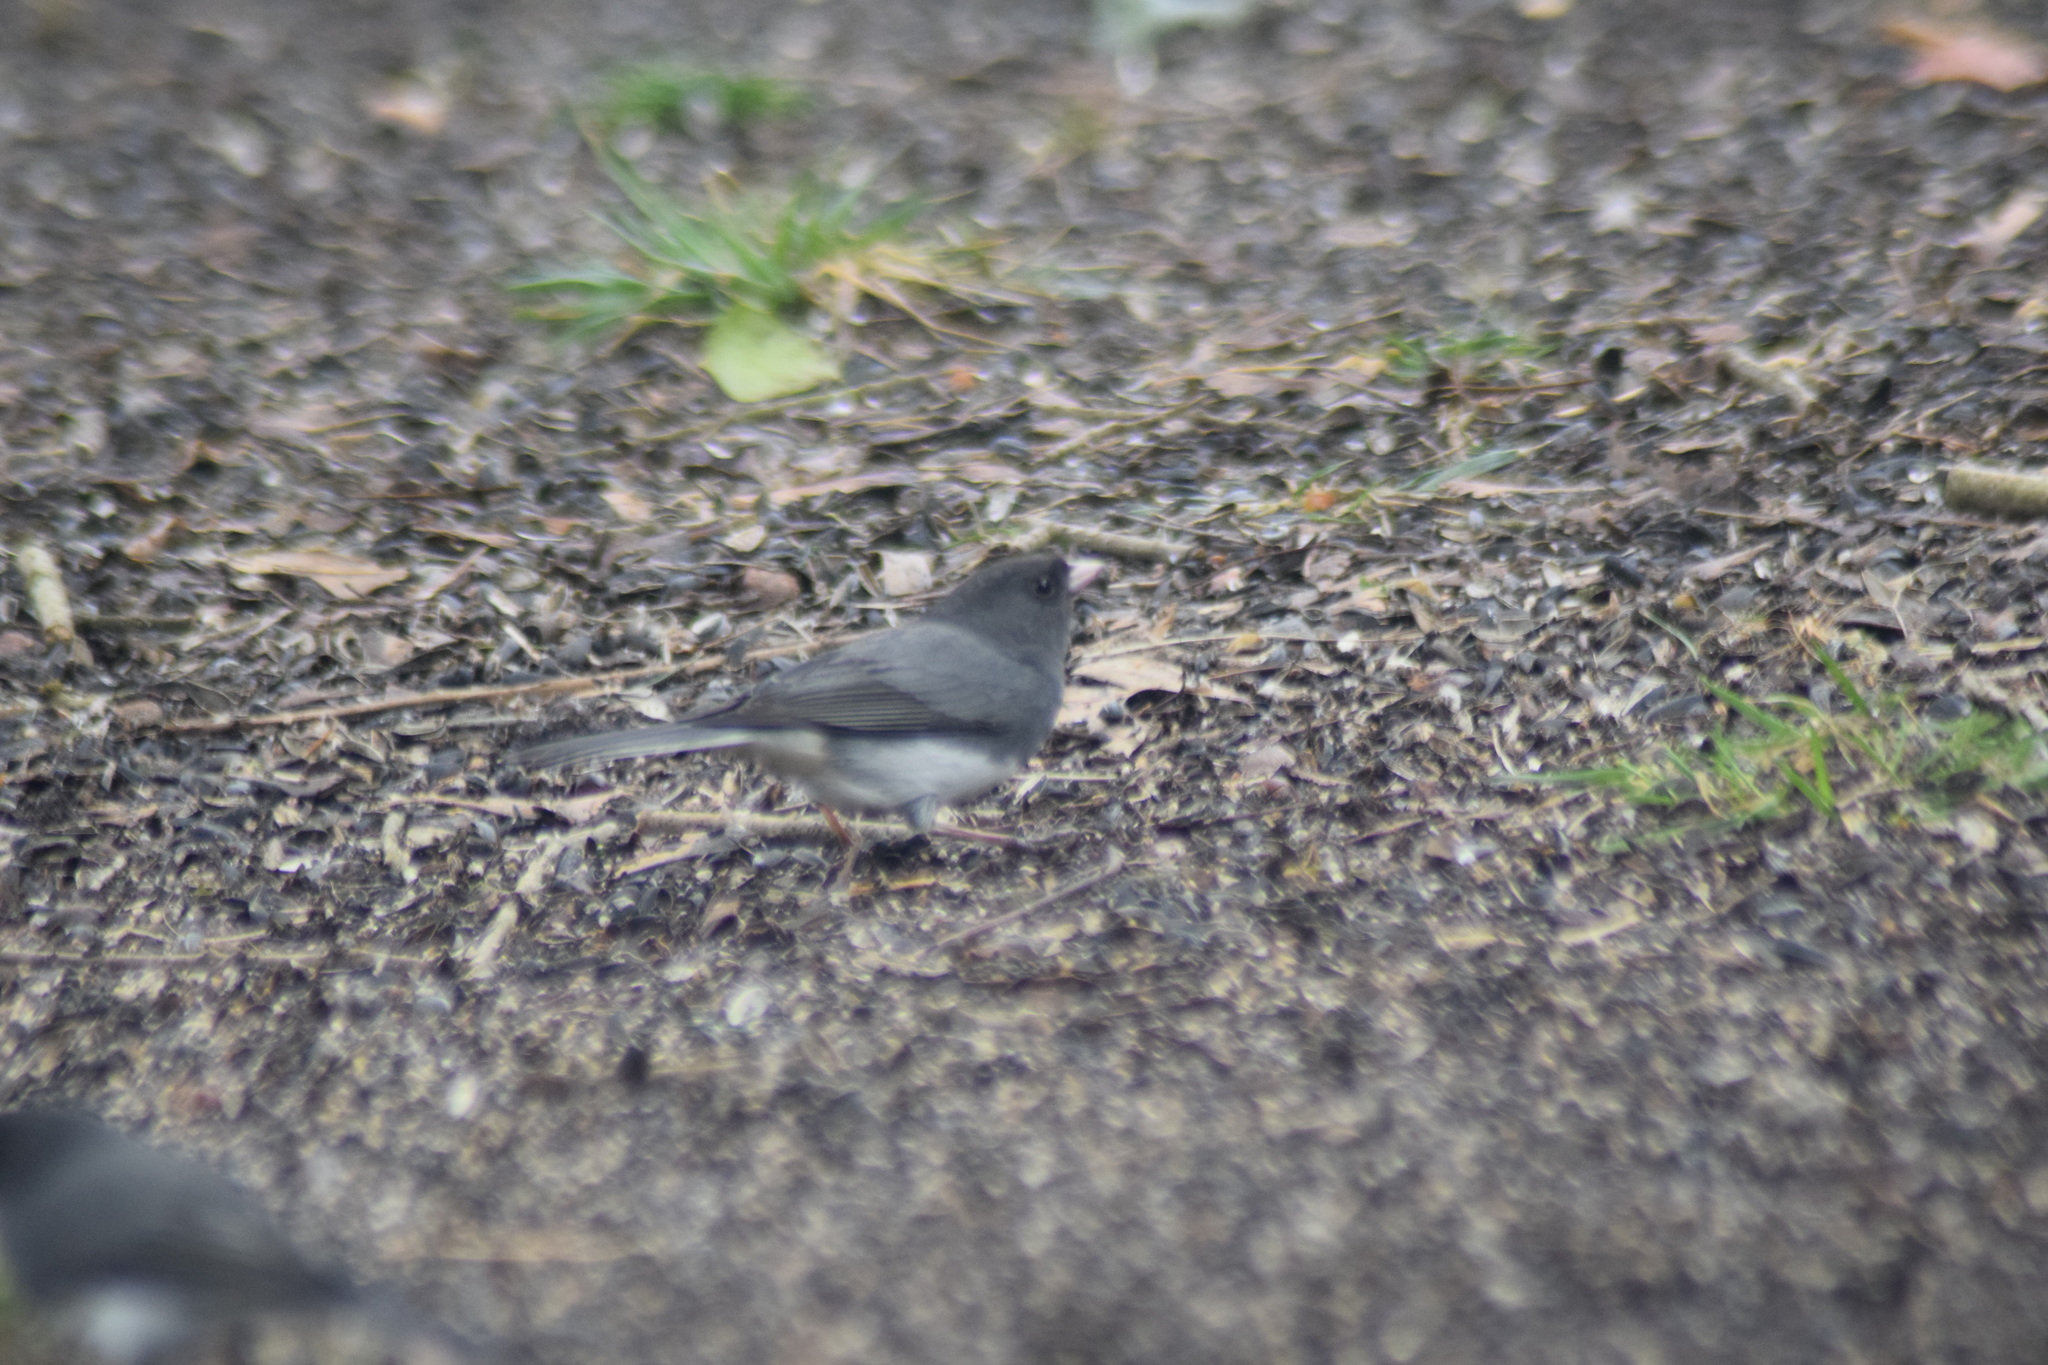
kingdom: Animalia
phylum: Chordata
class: Aves
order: Passeriformes
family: Passerellidae
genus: Junco
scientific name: Junco hyemalis
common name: Dark-eyed junco
